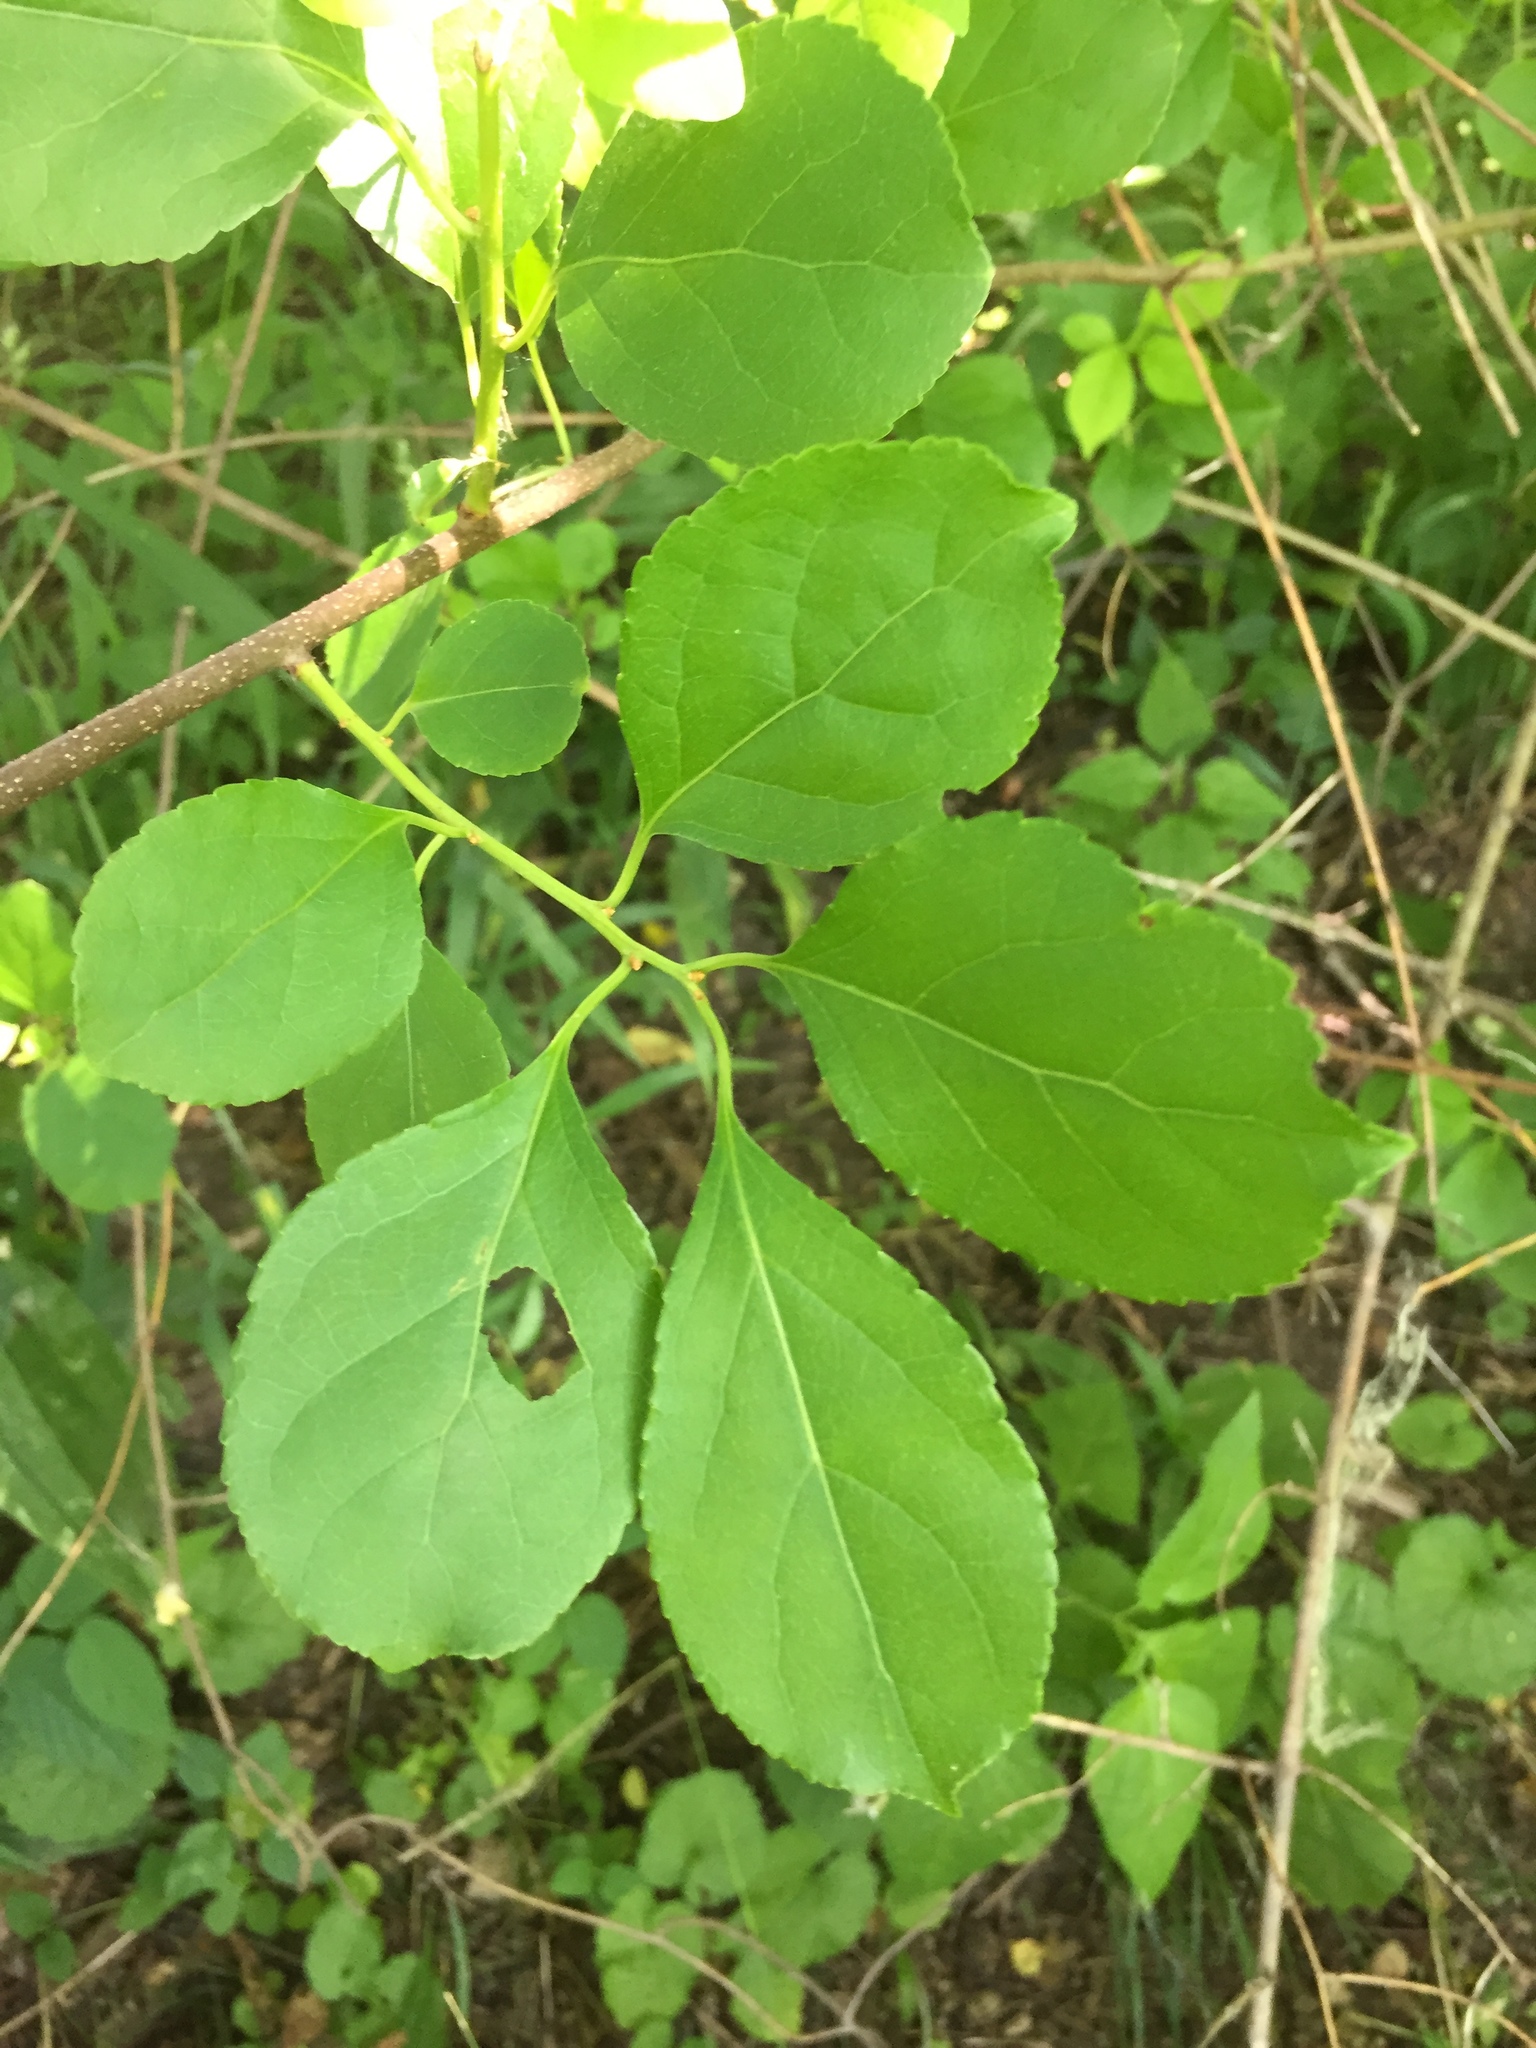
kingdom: Plantae
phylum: Tracheophyta
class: Magnoliopsida
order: Celastrales
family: Celastraceae
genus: Celastrus
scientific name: Celastrus orbiculatus
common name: Oriental bittersweet
